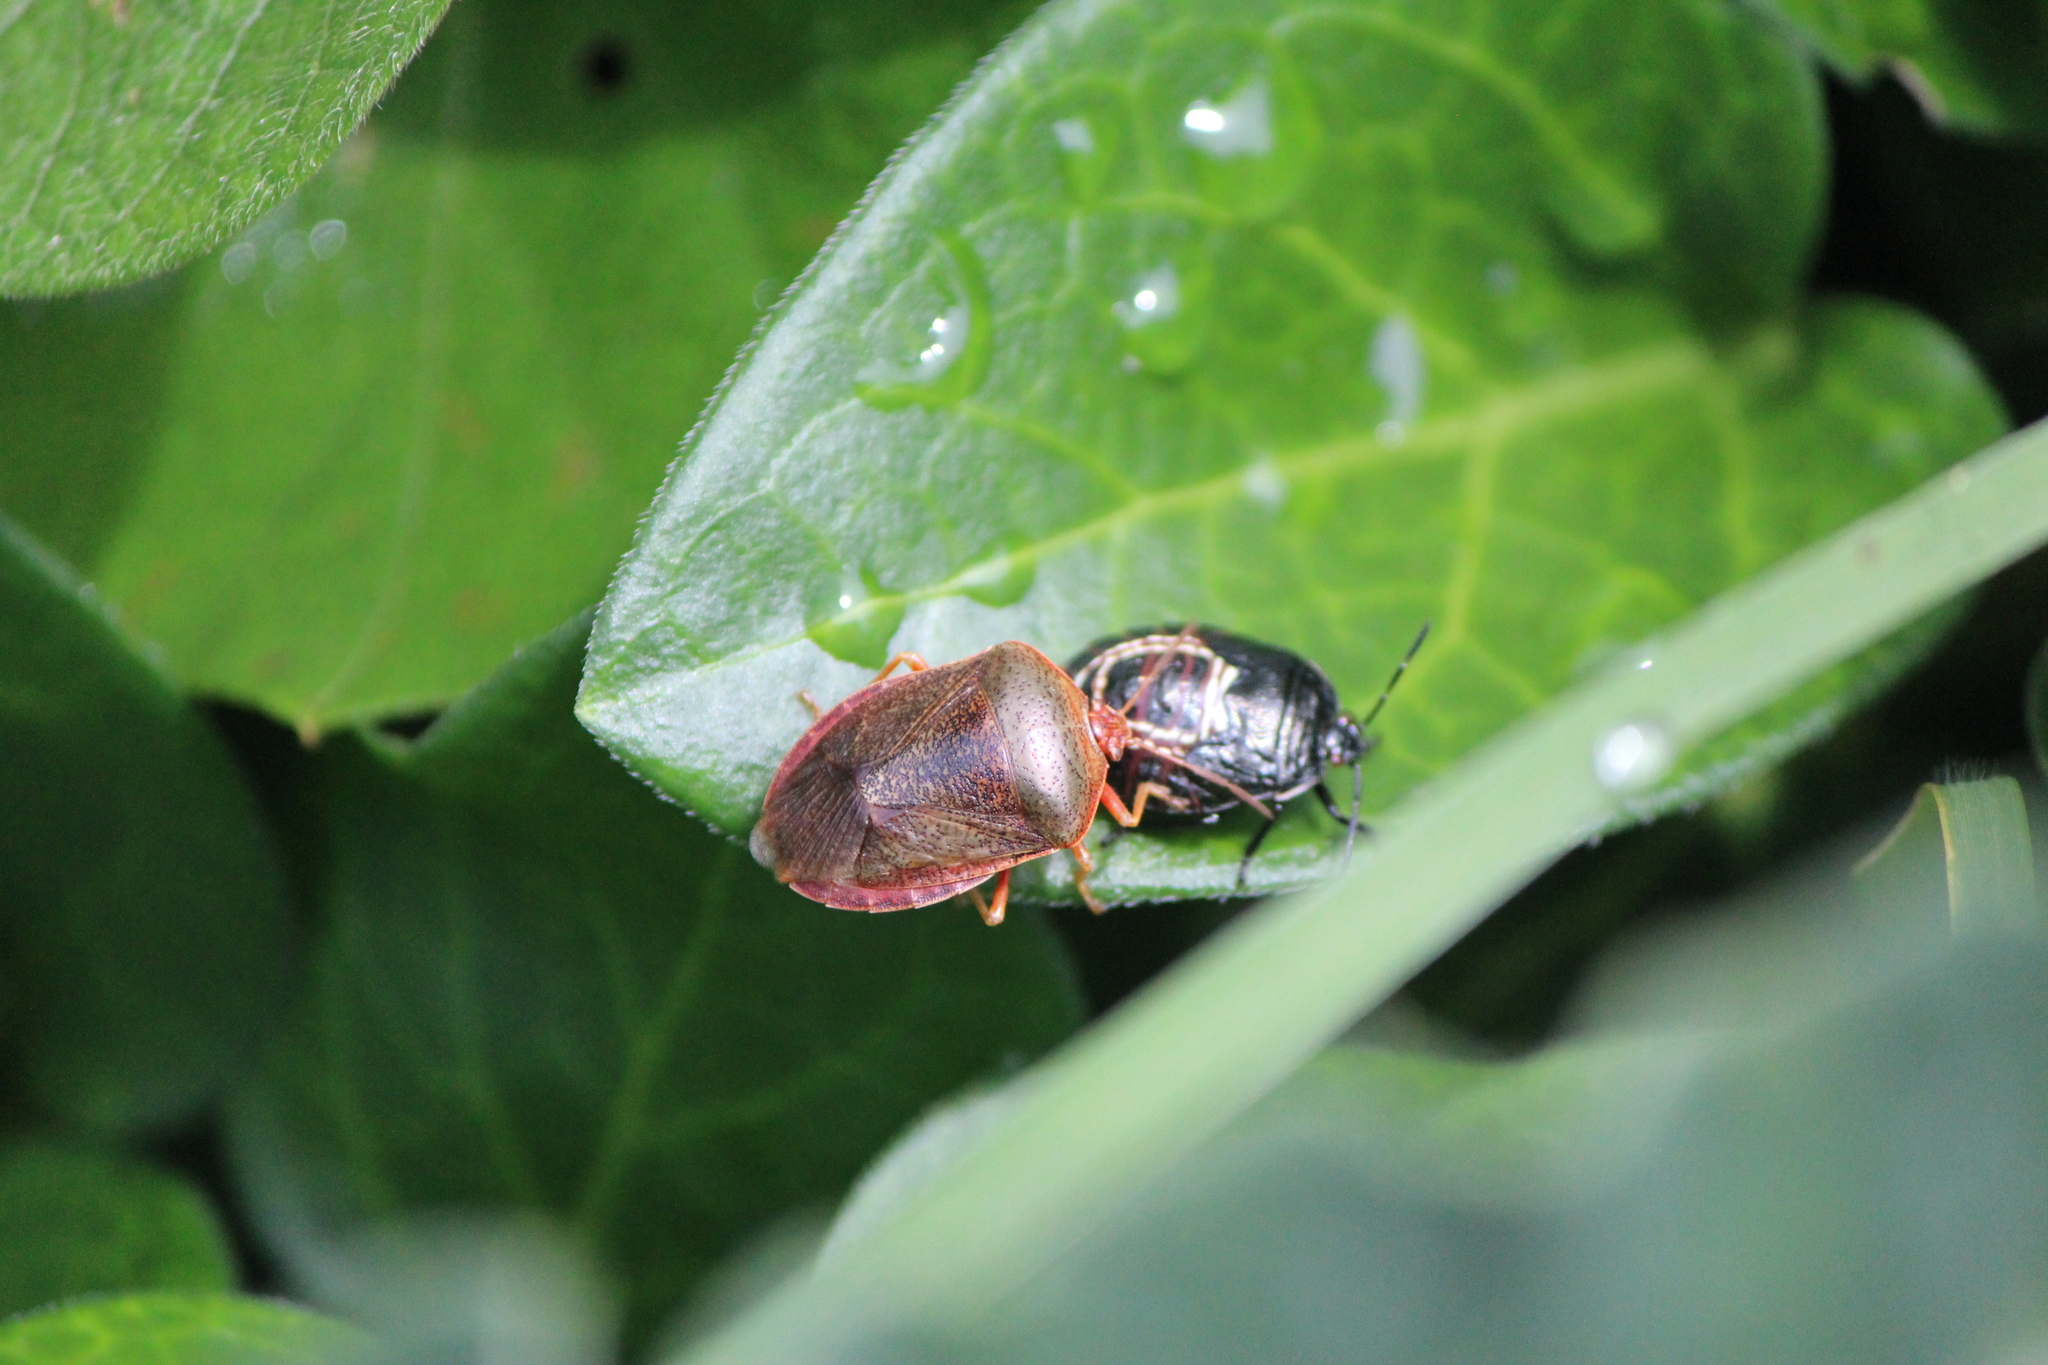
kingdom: Animalia
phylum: Arthropoda
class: Insecta
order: Hemiptera
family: Pentatomidae
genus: Ascra
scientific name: Ascra championi
